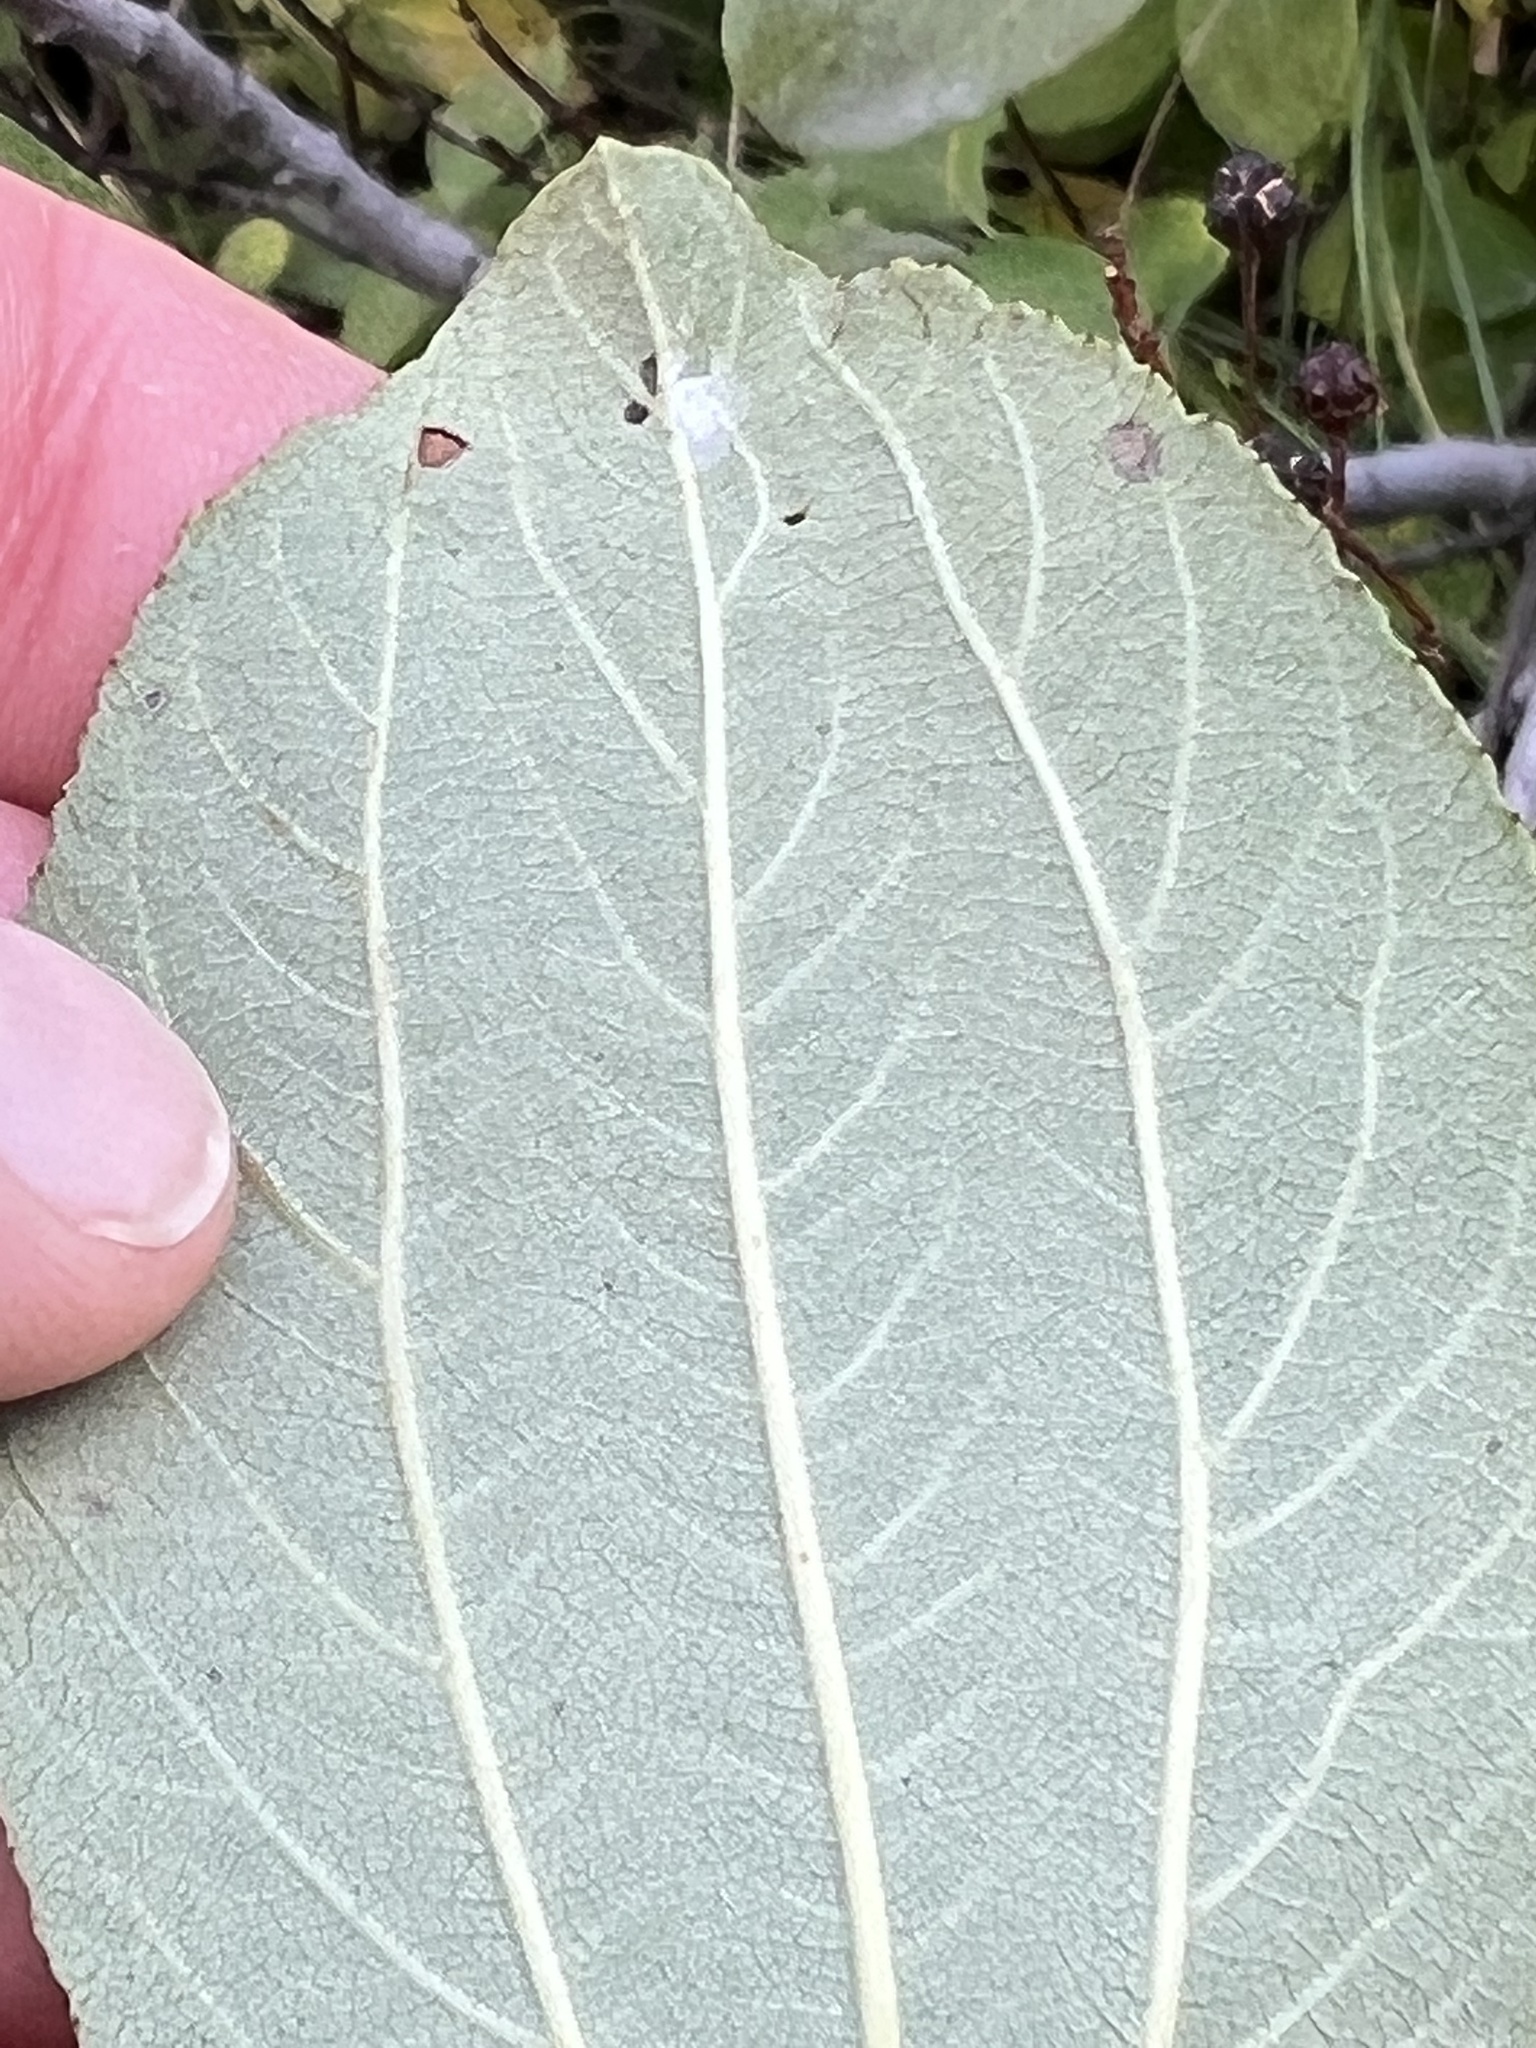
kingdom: Plantae
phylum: Tracheophyta
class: Magnoliopsida
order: Rosales
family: Rhamnaceae
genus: Ceanothus
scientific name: Ceanothus velutinus
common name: Snowbrush
